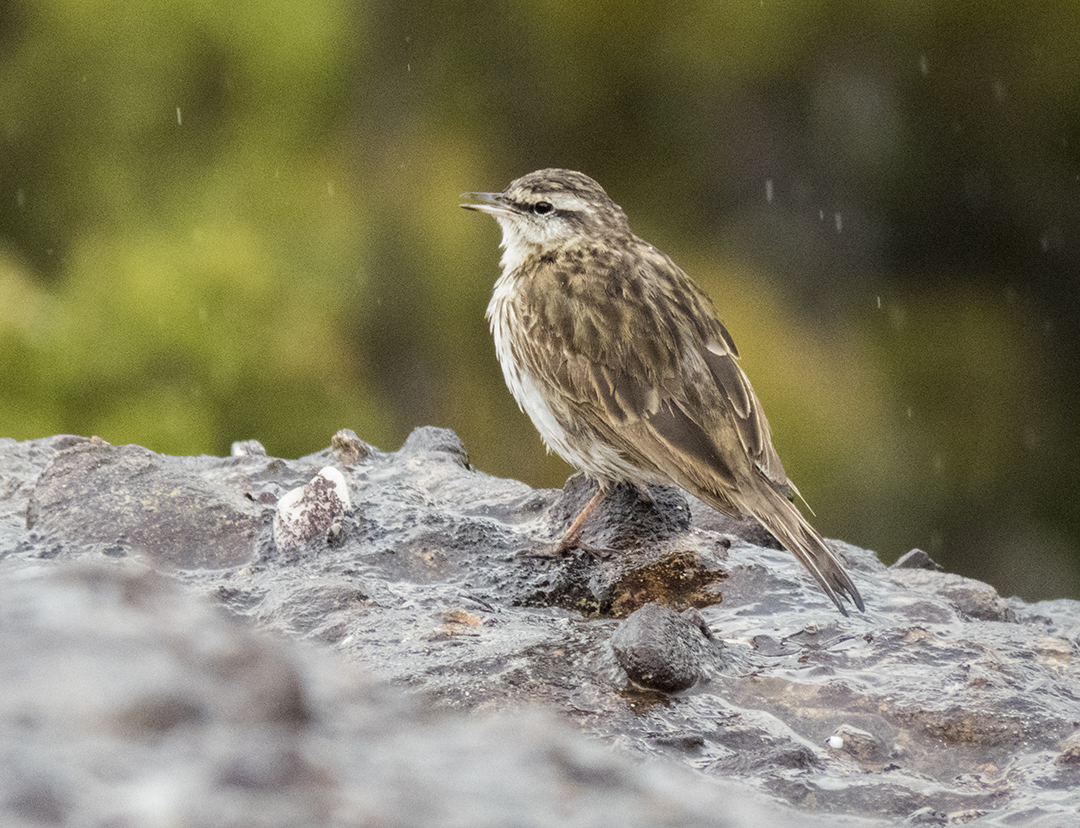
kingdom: Animalia
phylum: Chordata
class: Aves
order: Passeriformes
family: Motacillidae
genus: Anthus
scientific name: Anthus novaeseelandiae
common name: New zealand pipit
